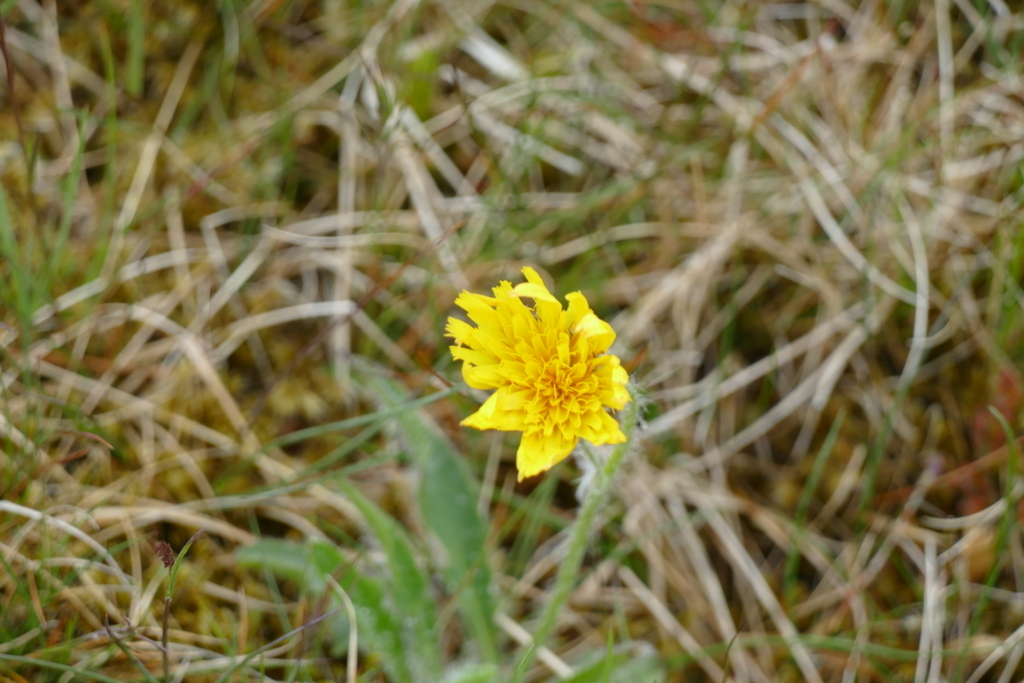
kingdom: Plantae
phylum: Tracheophyta
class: Magnoliopsida
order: Asterales
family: Asteraceae
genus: Pilosella
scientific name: Pilosella officinarum
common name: Mouse-ear hawkweed
